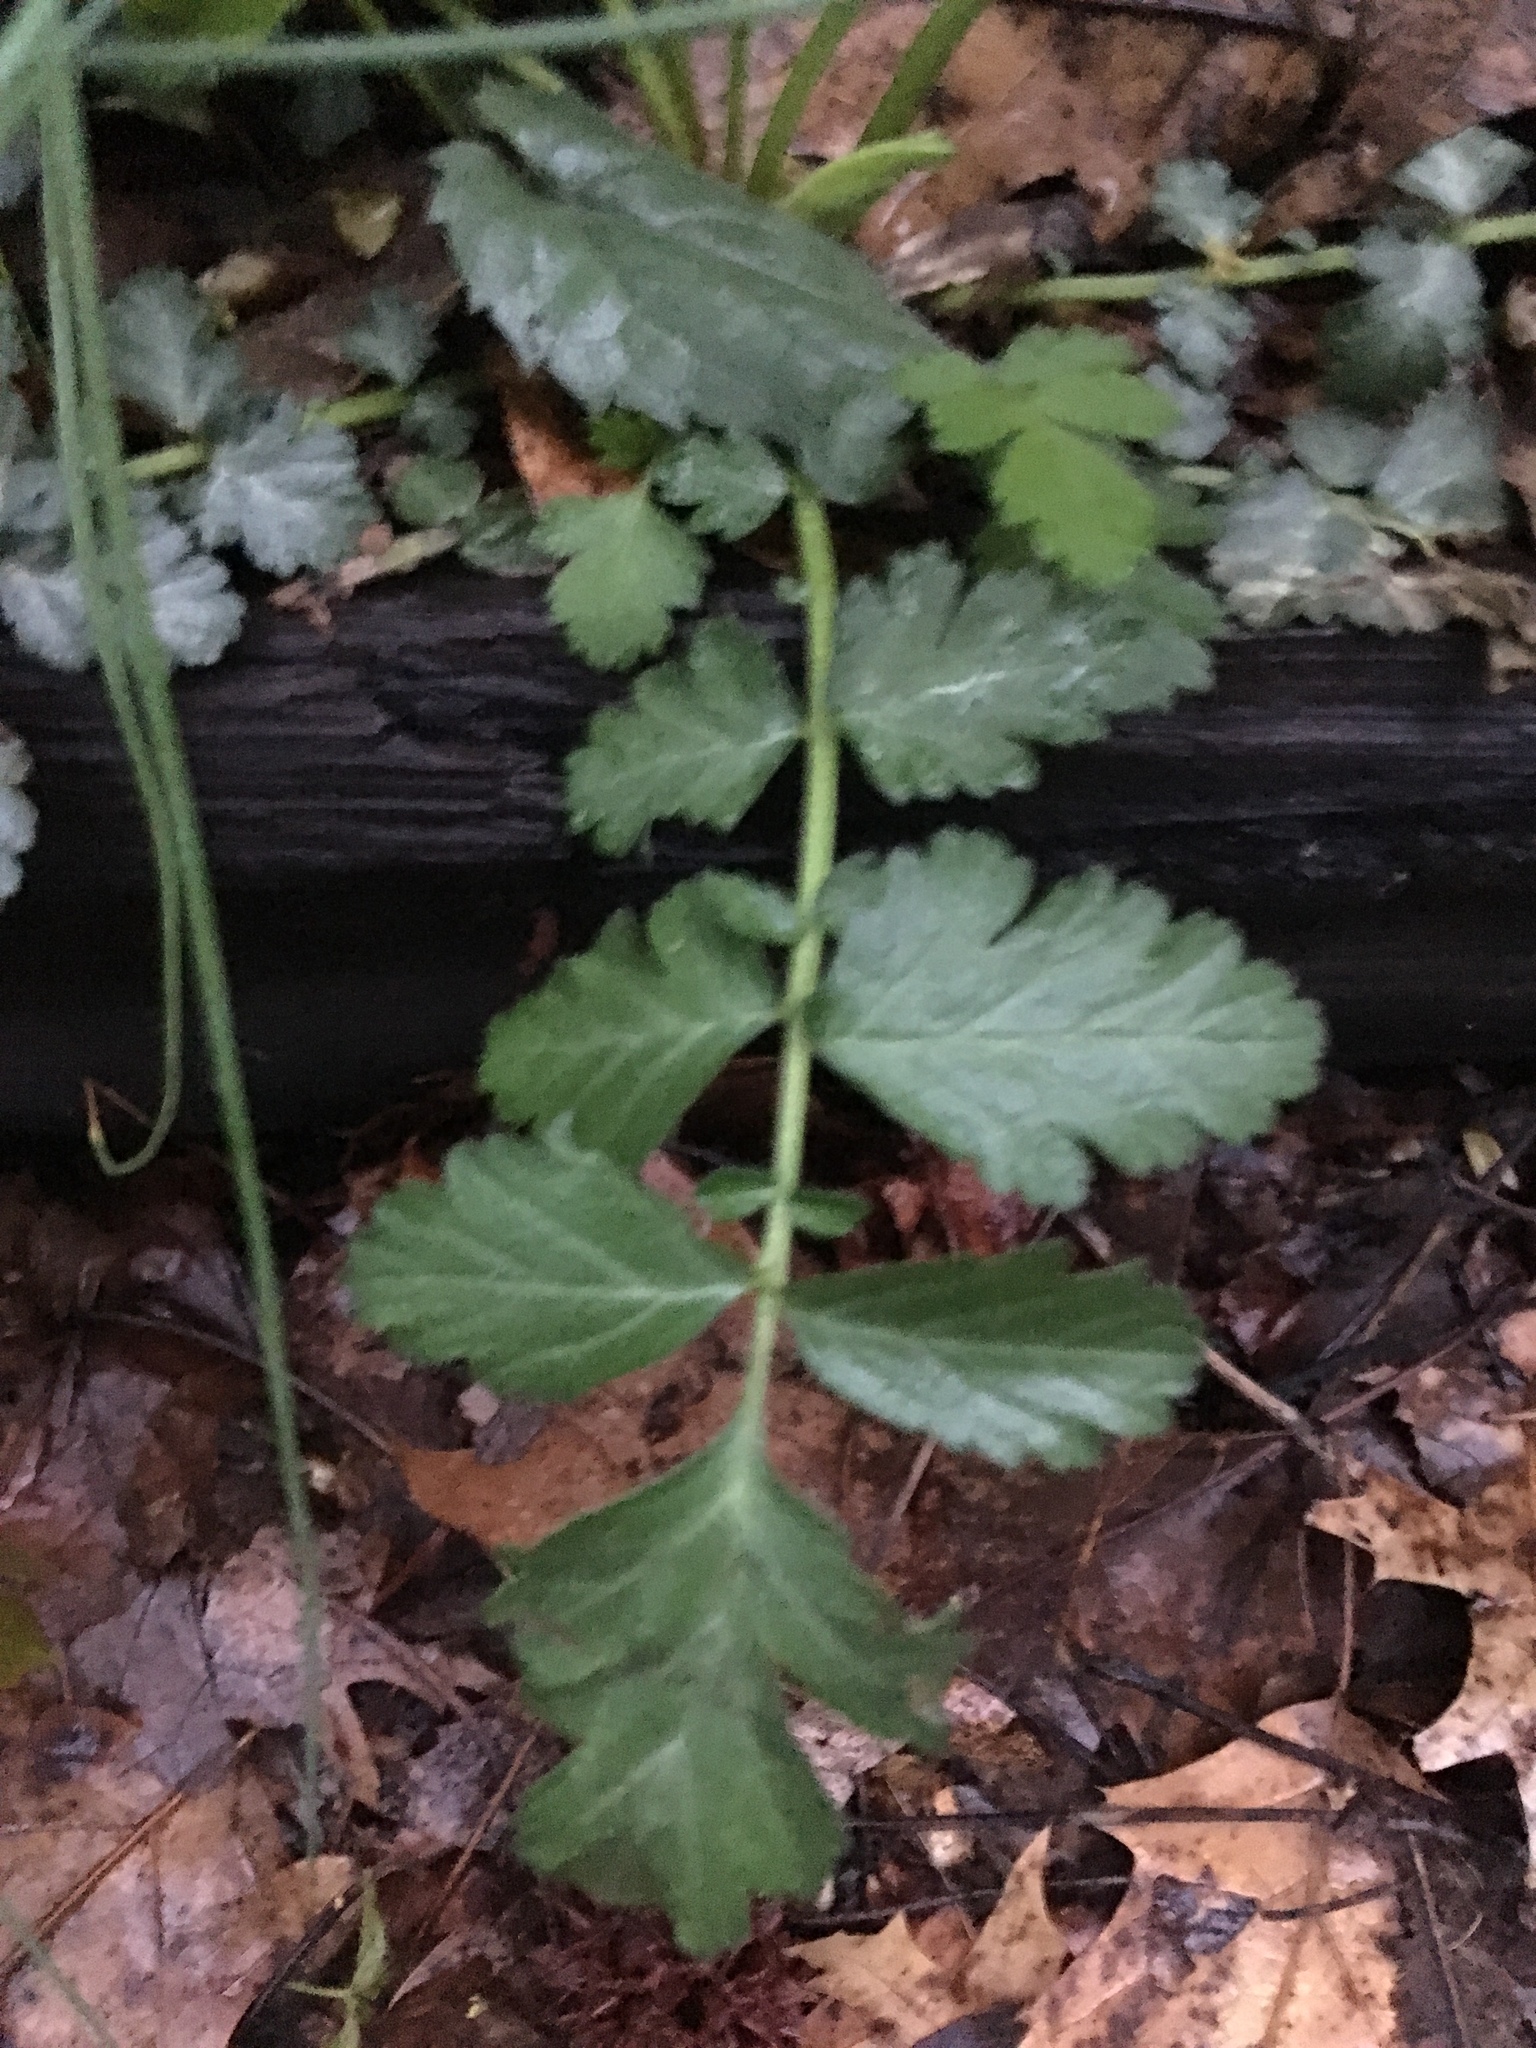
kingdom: Plantae
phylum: Tracheophyta
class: Magnoliopsida
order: Rosales
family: Rosaceae
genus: Geum
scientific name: Geum canadense
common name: White avens
